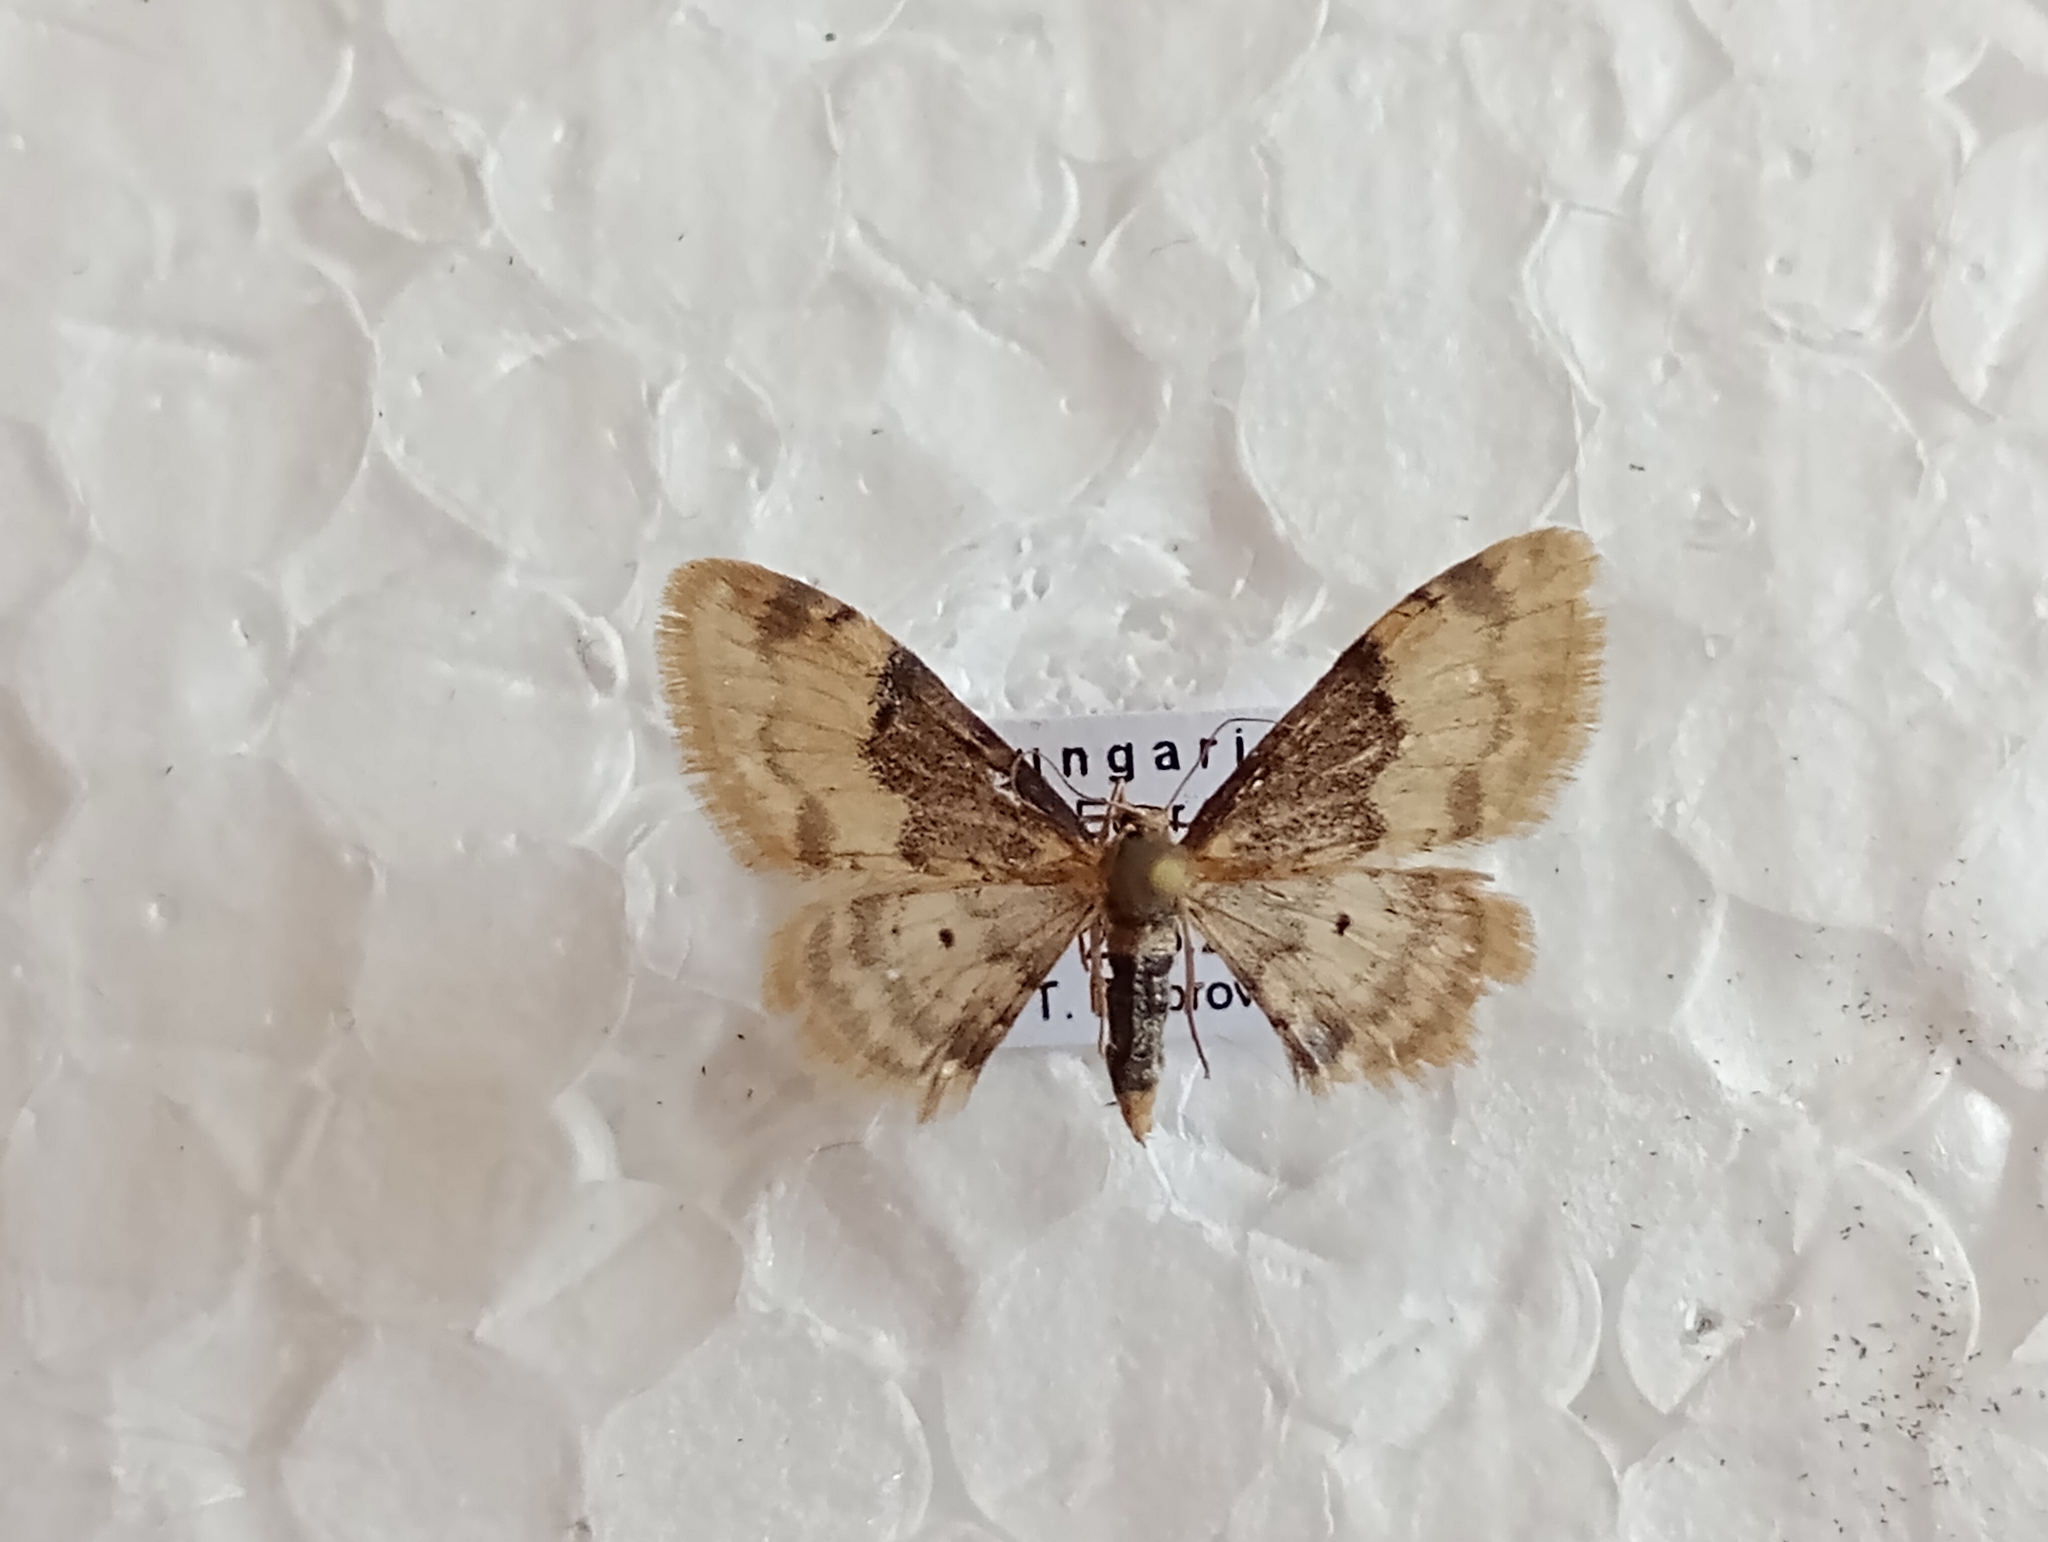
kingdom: Animalia
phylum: Arthropoda
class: Insecta
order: Lepidoptera
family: Geometridae
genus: Idaea
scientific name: Idaea filicata
